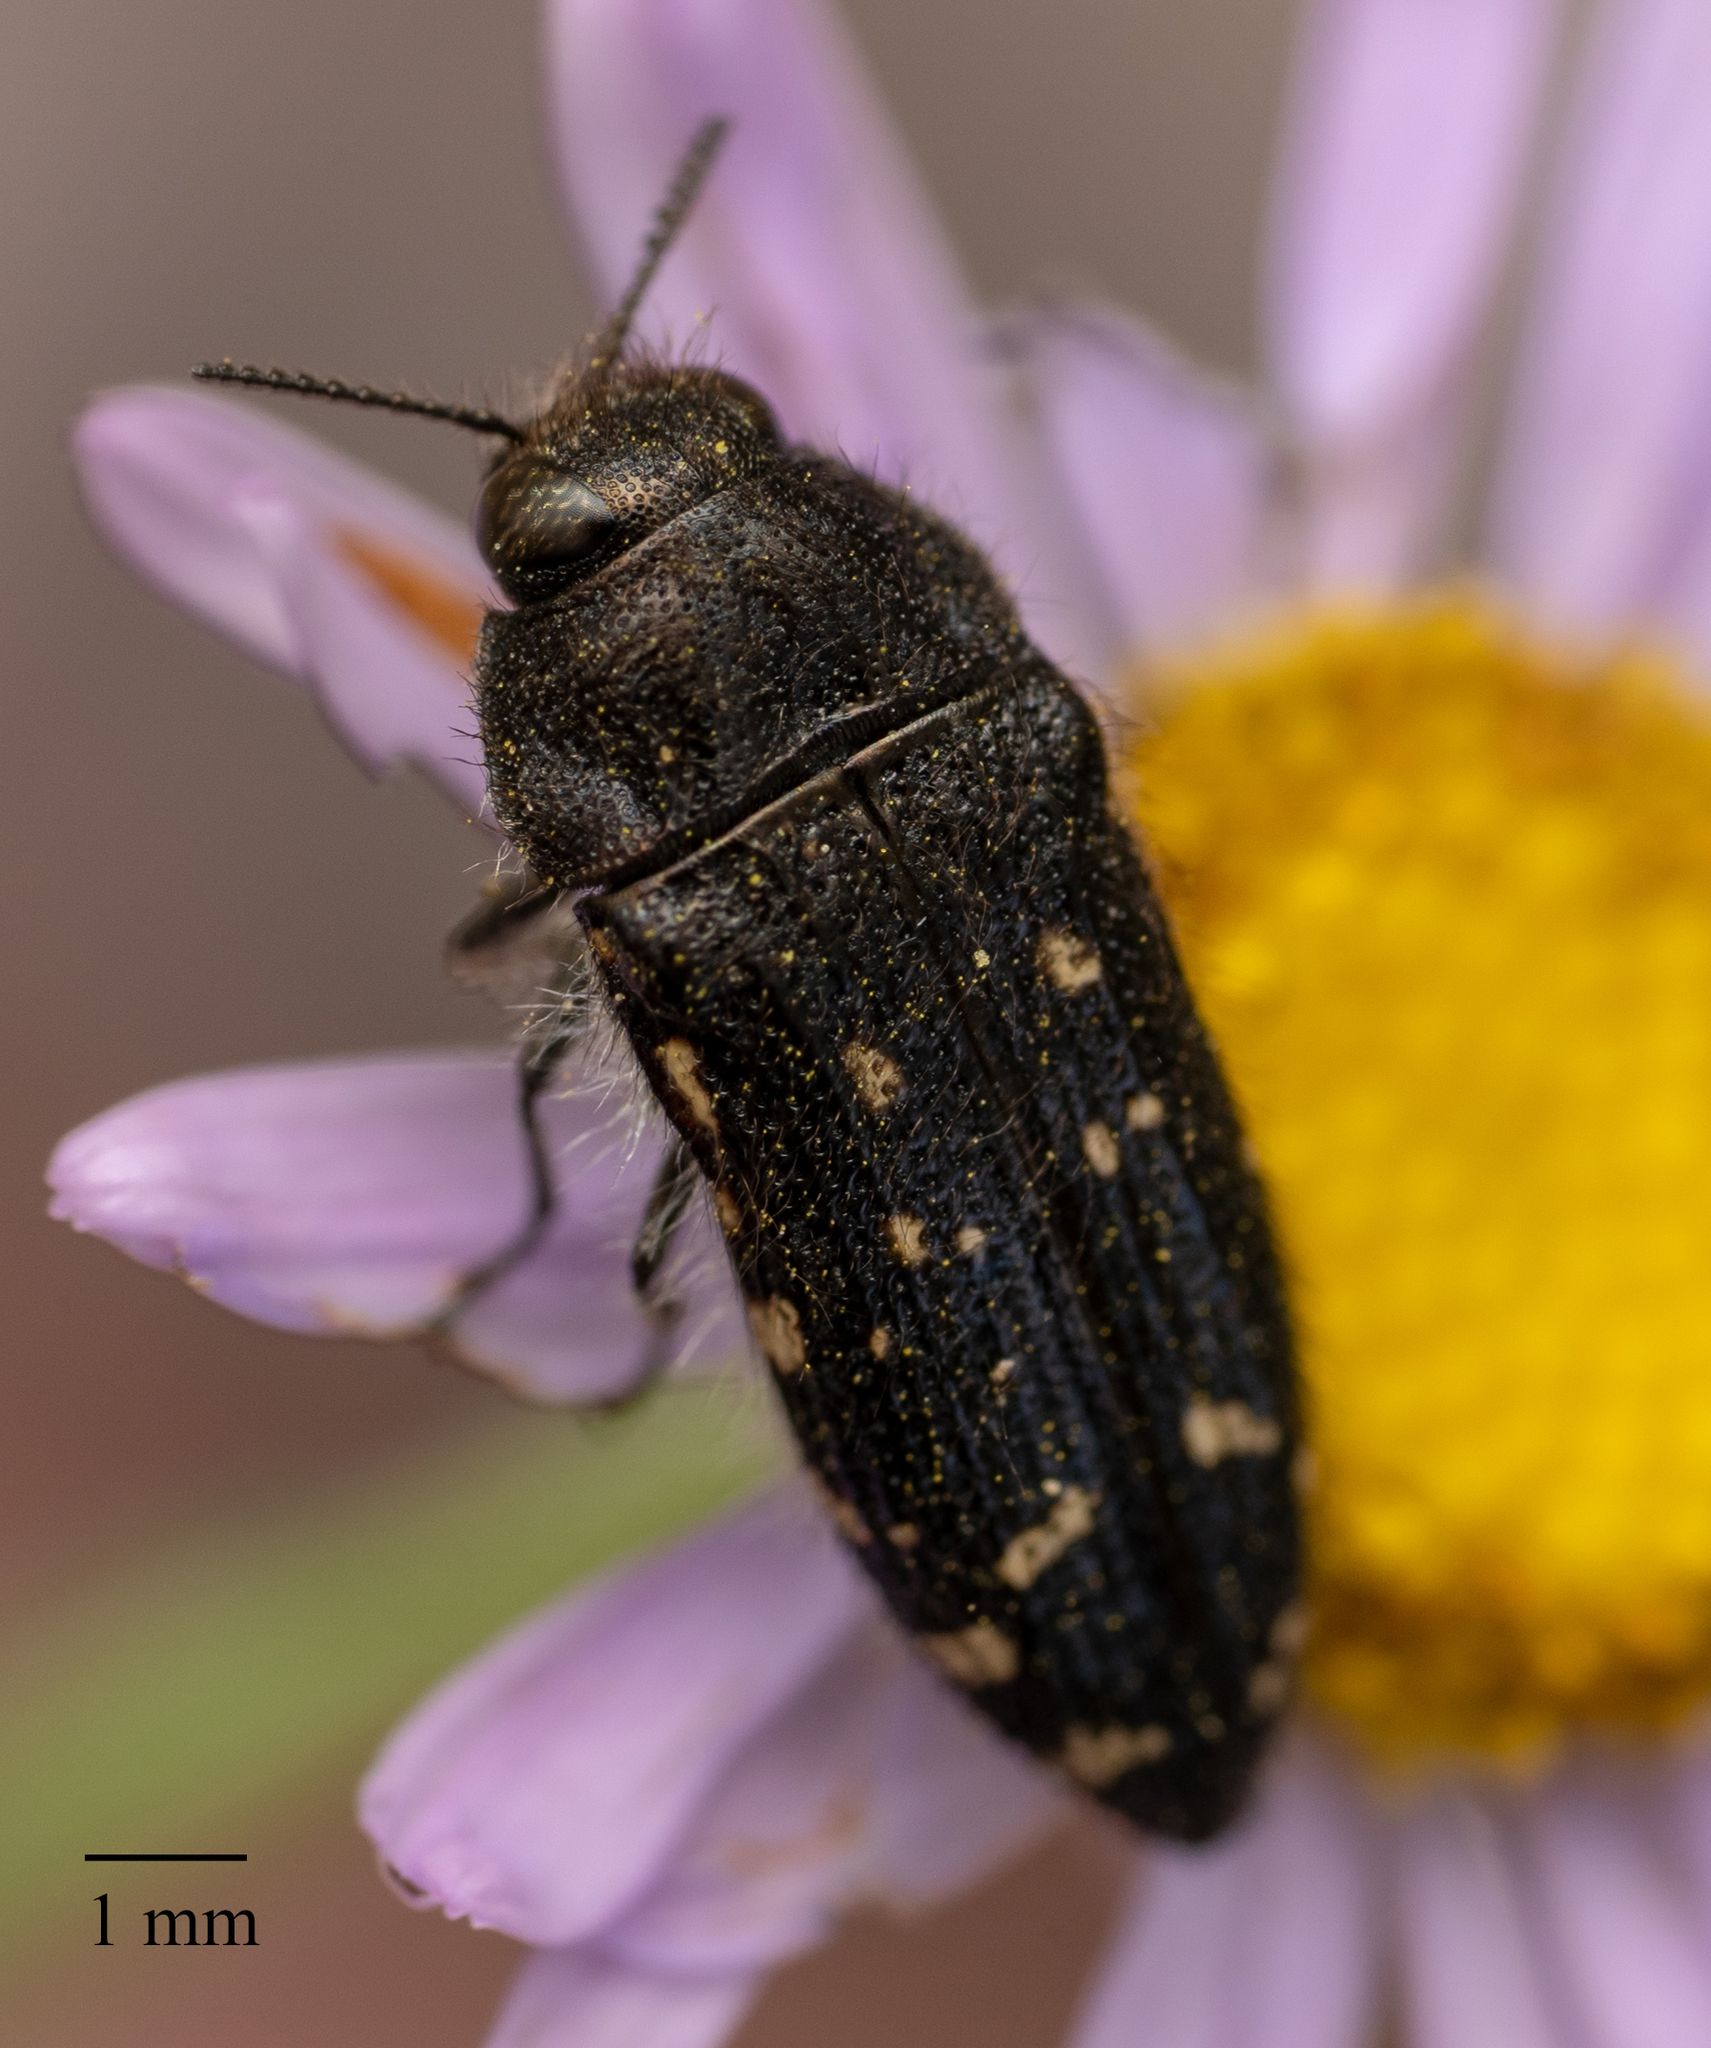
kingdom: Animalia
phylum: Arthropoda
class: Insecta
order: Coleoptera
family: Buprestidae
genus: Acmaeodera
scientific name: Acmaeodera knowltoni
